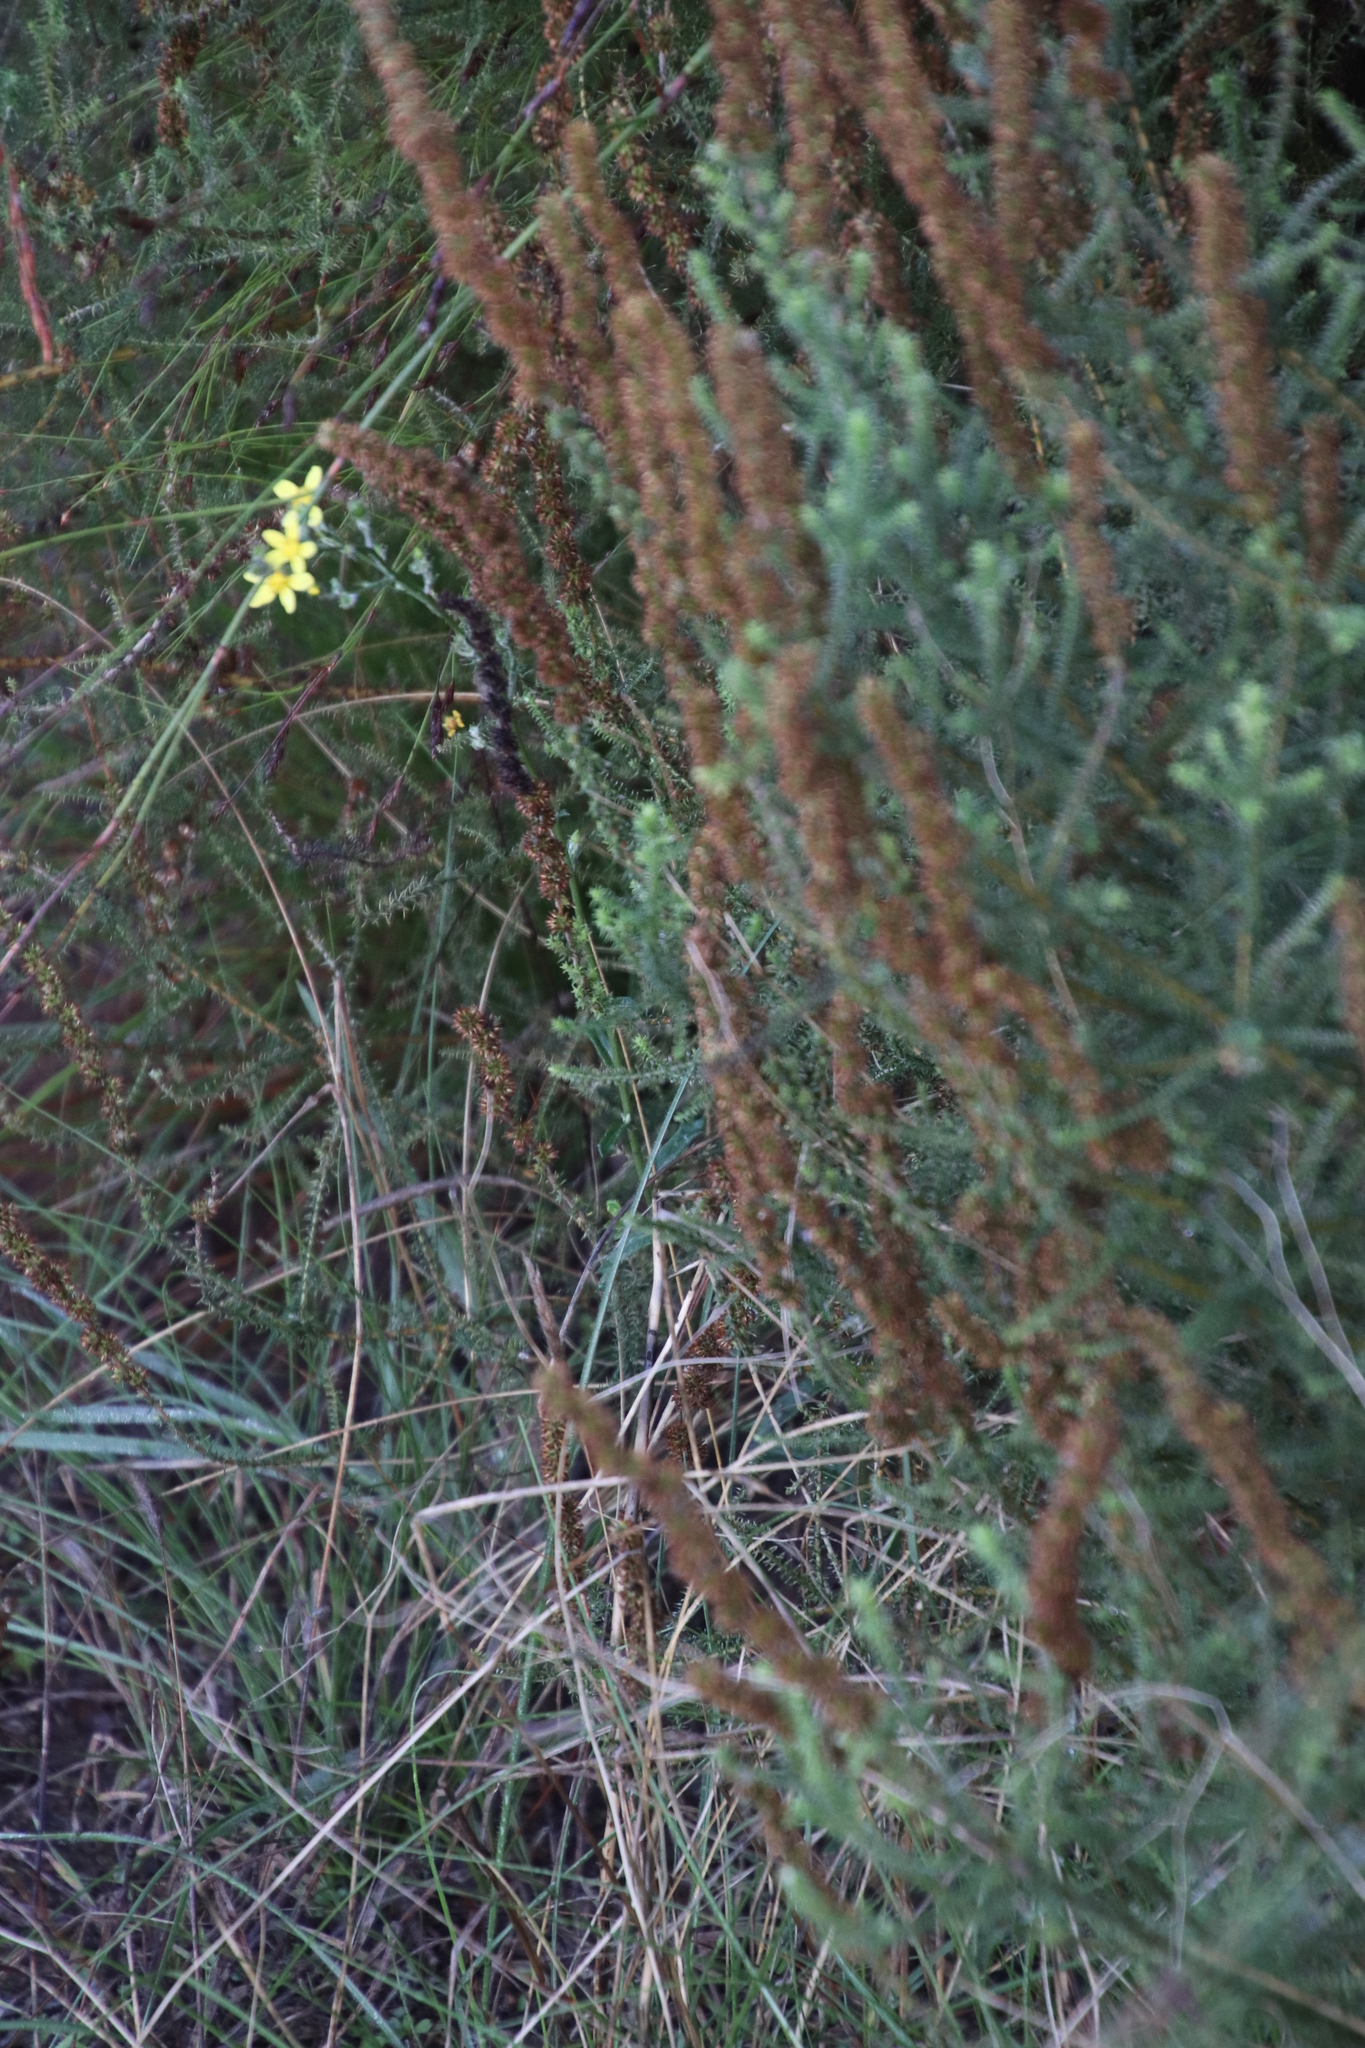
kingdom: Plantae
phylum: Tracheophyta
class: Magnoliopsida
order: Asterales
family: Asteraceae
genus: Senecio
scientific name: Senecio pubigerus
